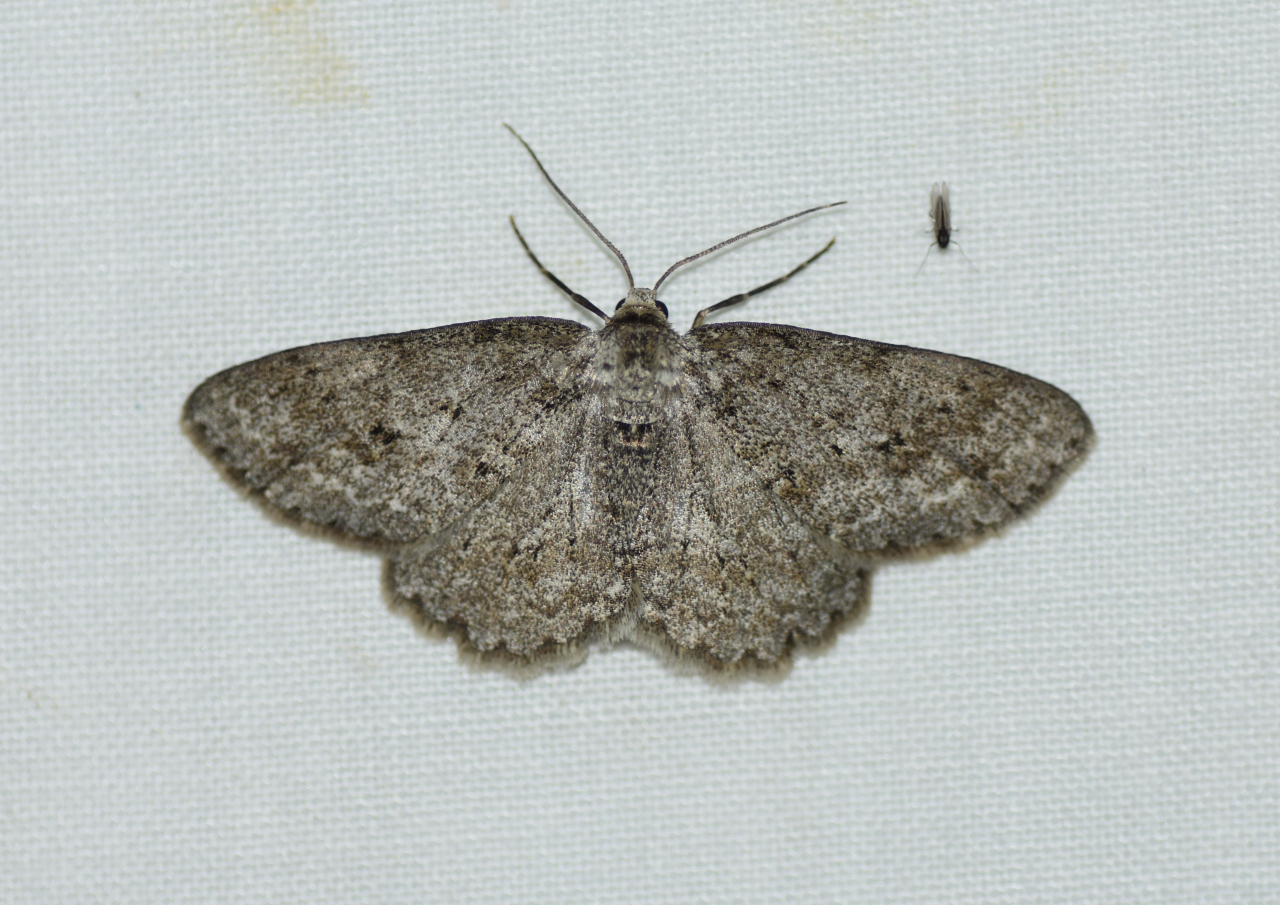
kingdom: Animalia
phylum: Arthropoda
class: Insecta
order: Lepidoptera
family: Geometridae
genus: Ectropis
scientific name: Ectropis crepuscularia
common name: Engrailed
